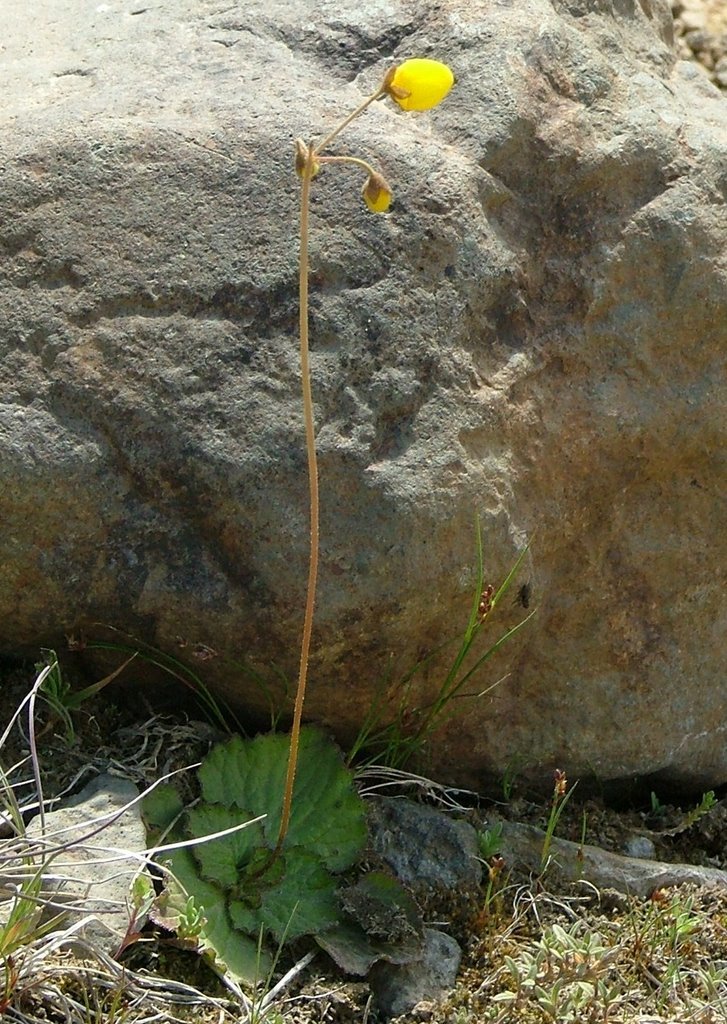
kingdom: Plantae
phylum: Tracheophyta
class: Magnoliopsida
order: Lamiales
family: Calceolariaceae
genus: Calceolaria
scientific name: Calceolaria filicaulis
